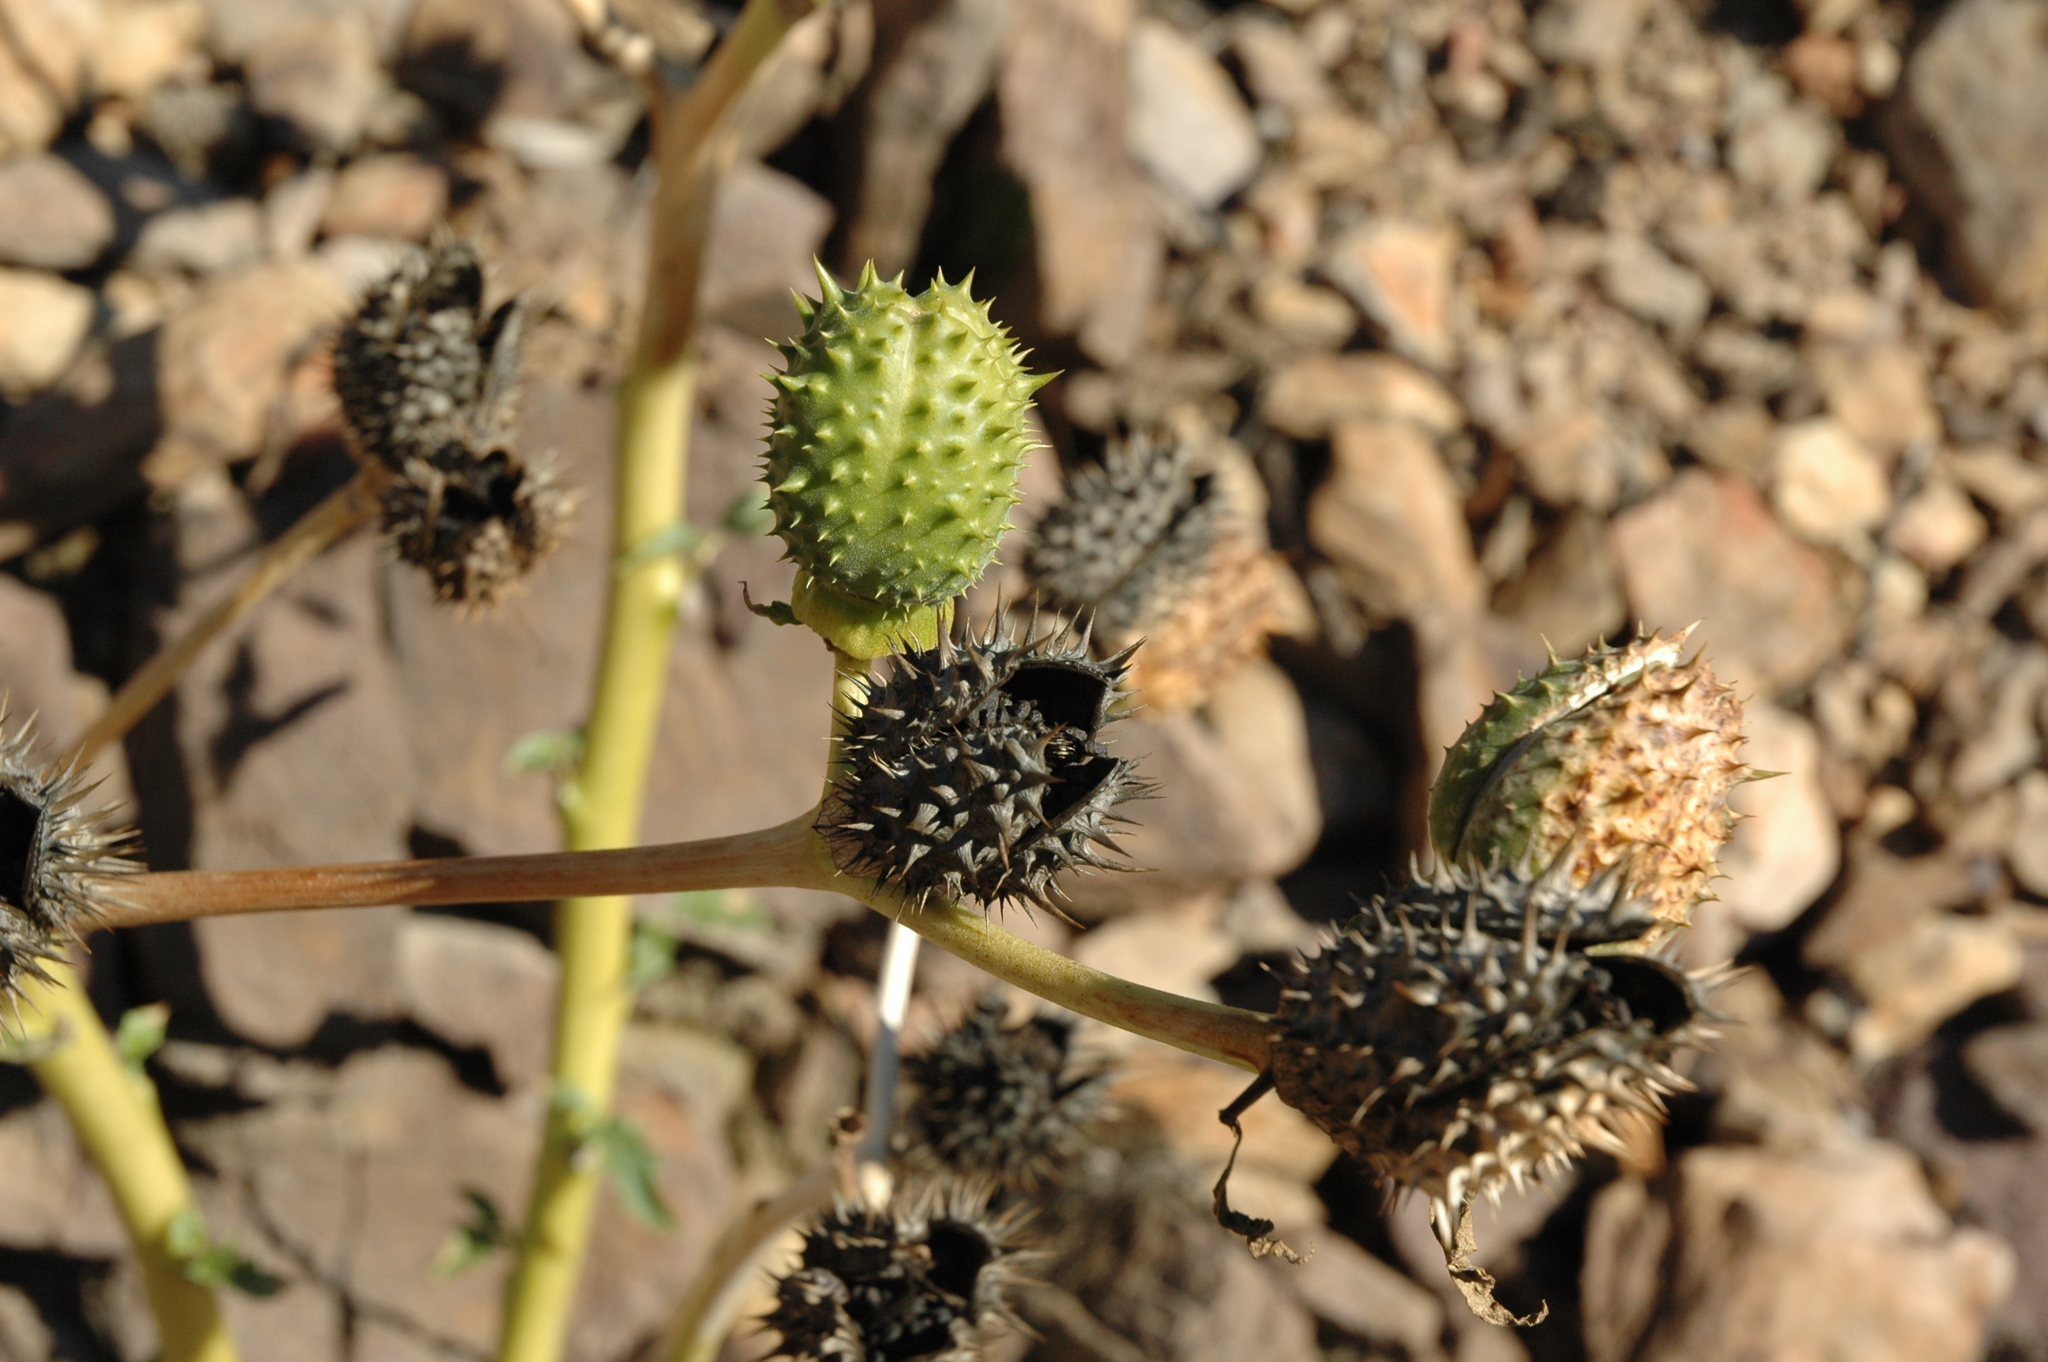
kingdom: Plantae
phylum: Tracheophyta
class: Magnoliopsida
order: Solanales
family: Solanaceae
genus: Datura
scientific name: Datura stramonium
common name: Thorn-apple
